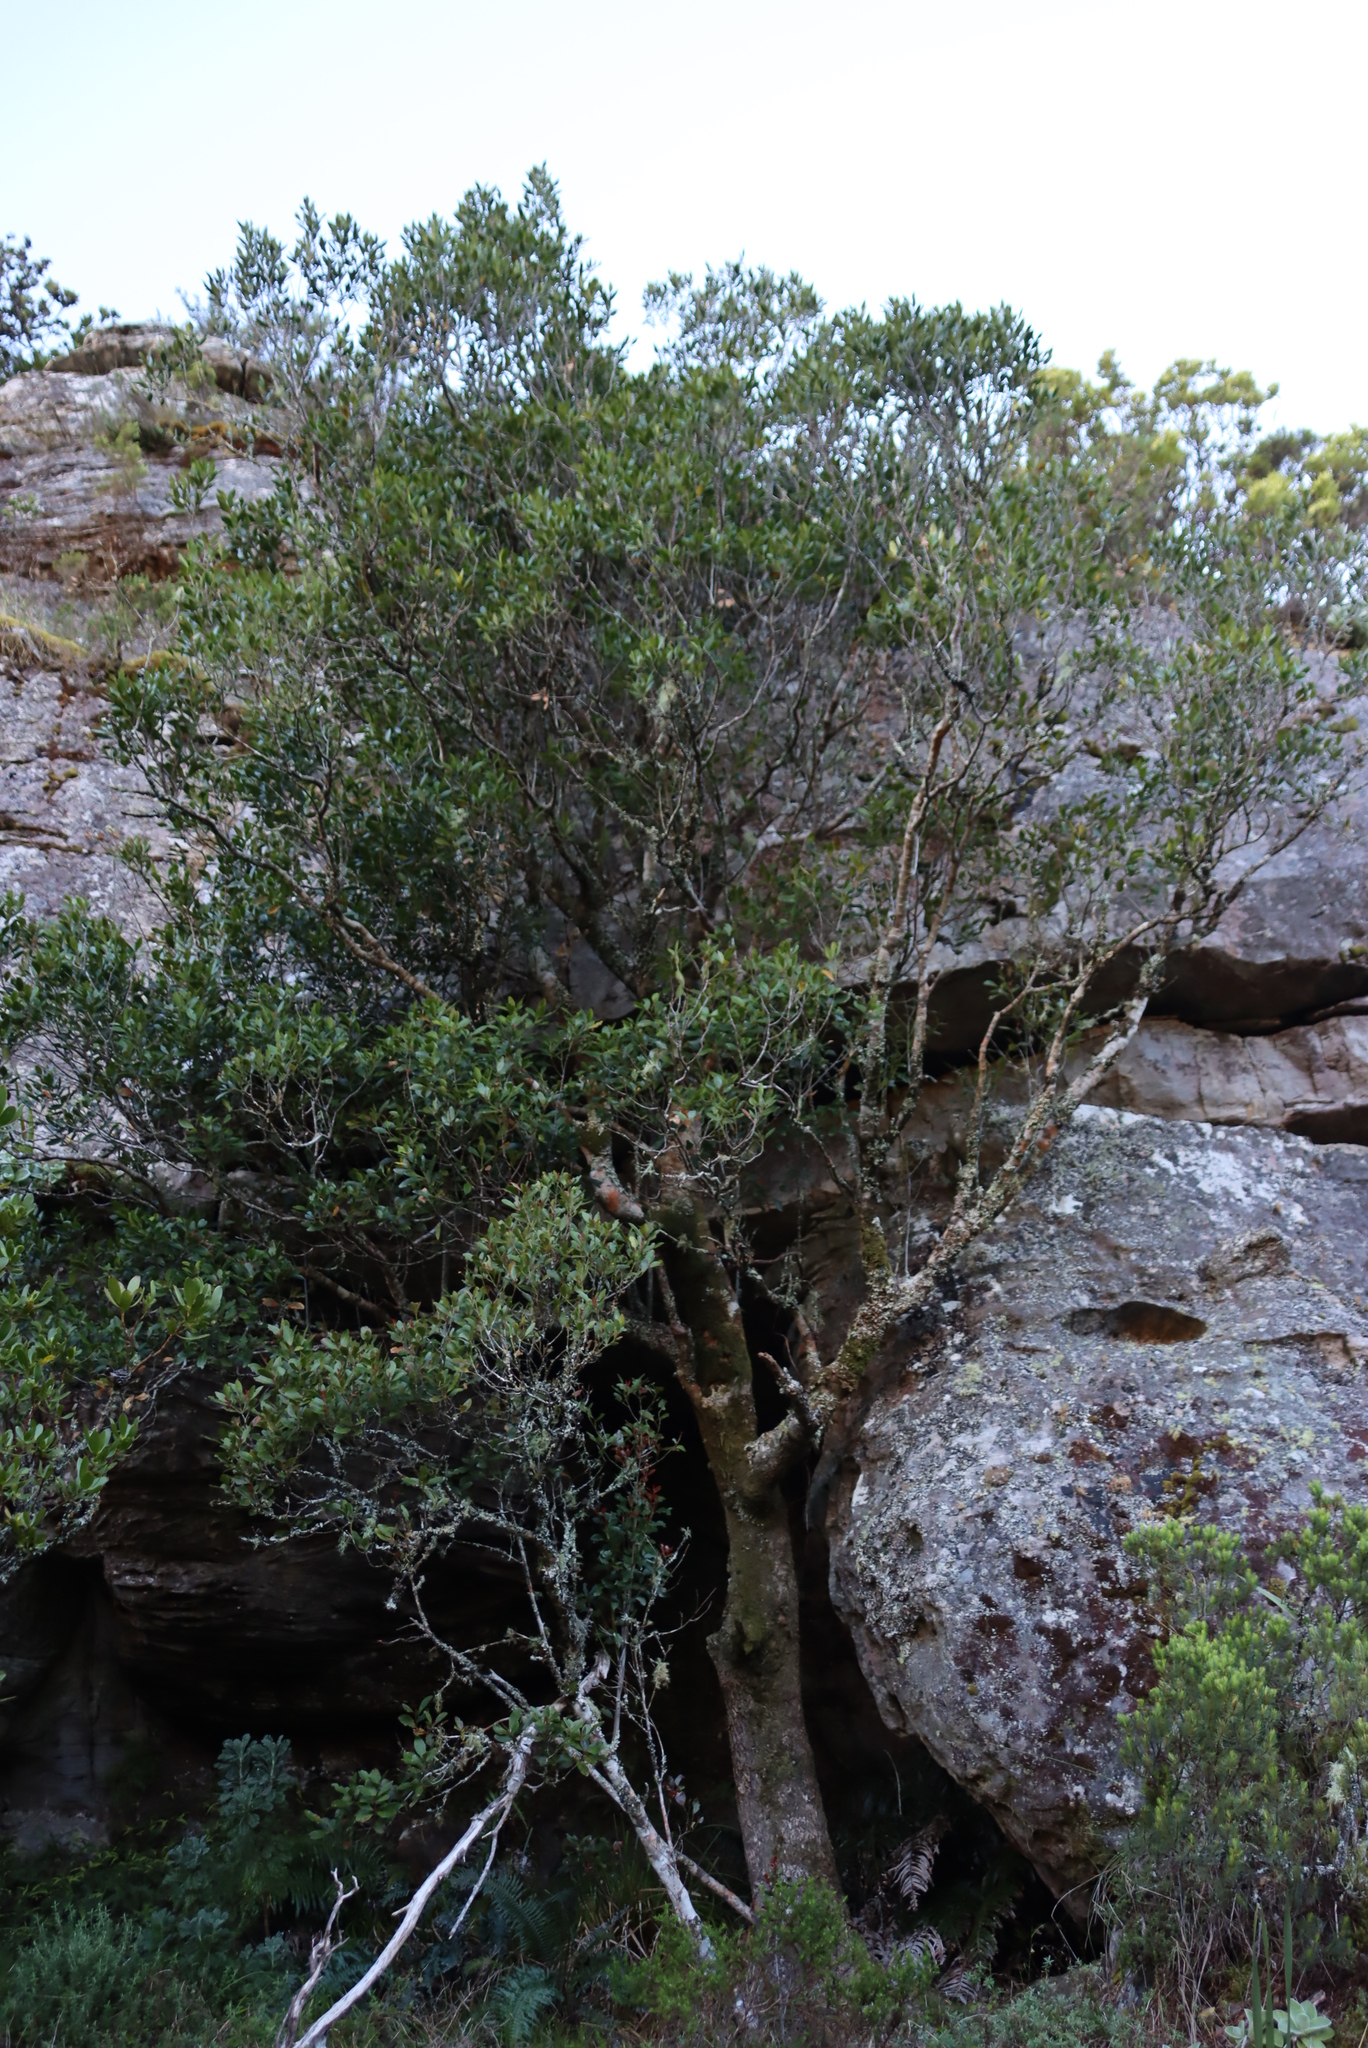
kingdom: Plantae
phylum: Tracheophyta
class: Magnoliopsida
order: Celastrales
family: Celastraceae
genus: Elaeodendron
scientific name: Elaeodendron schinoides
